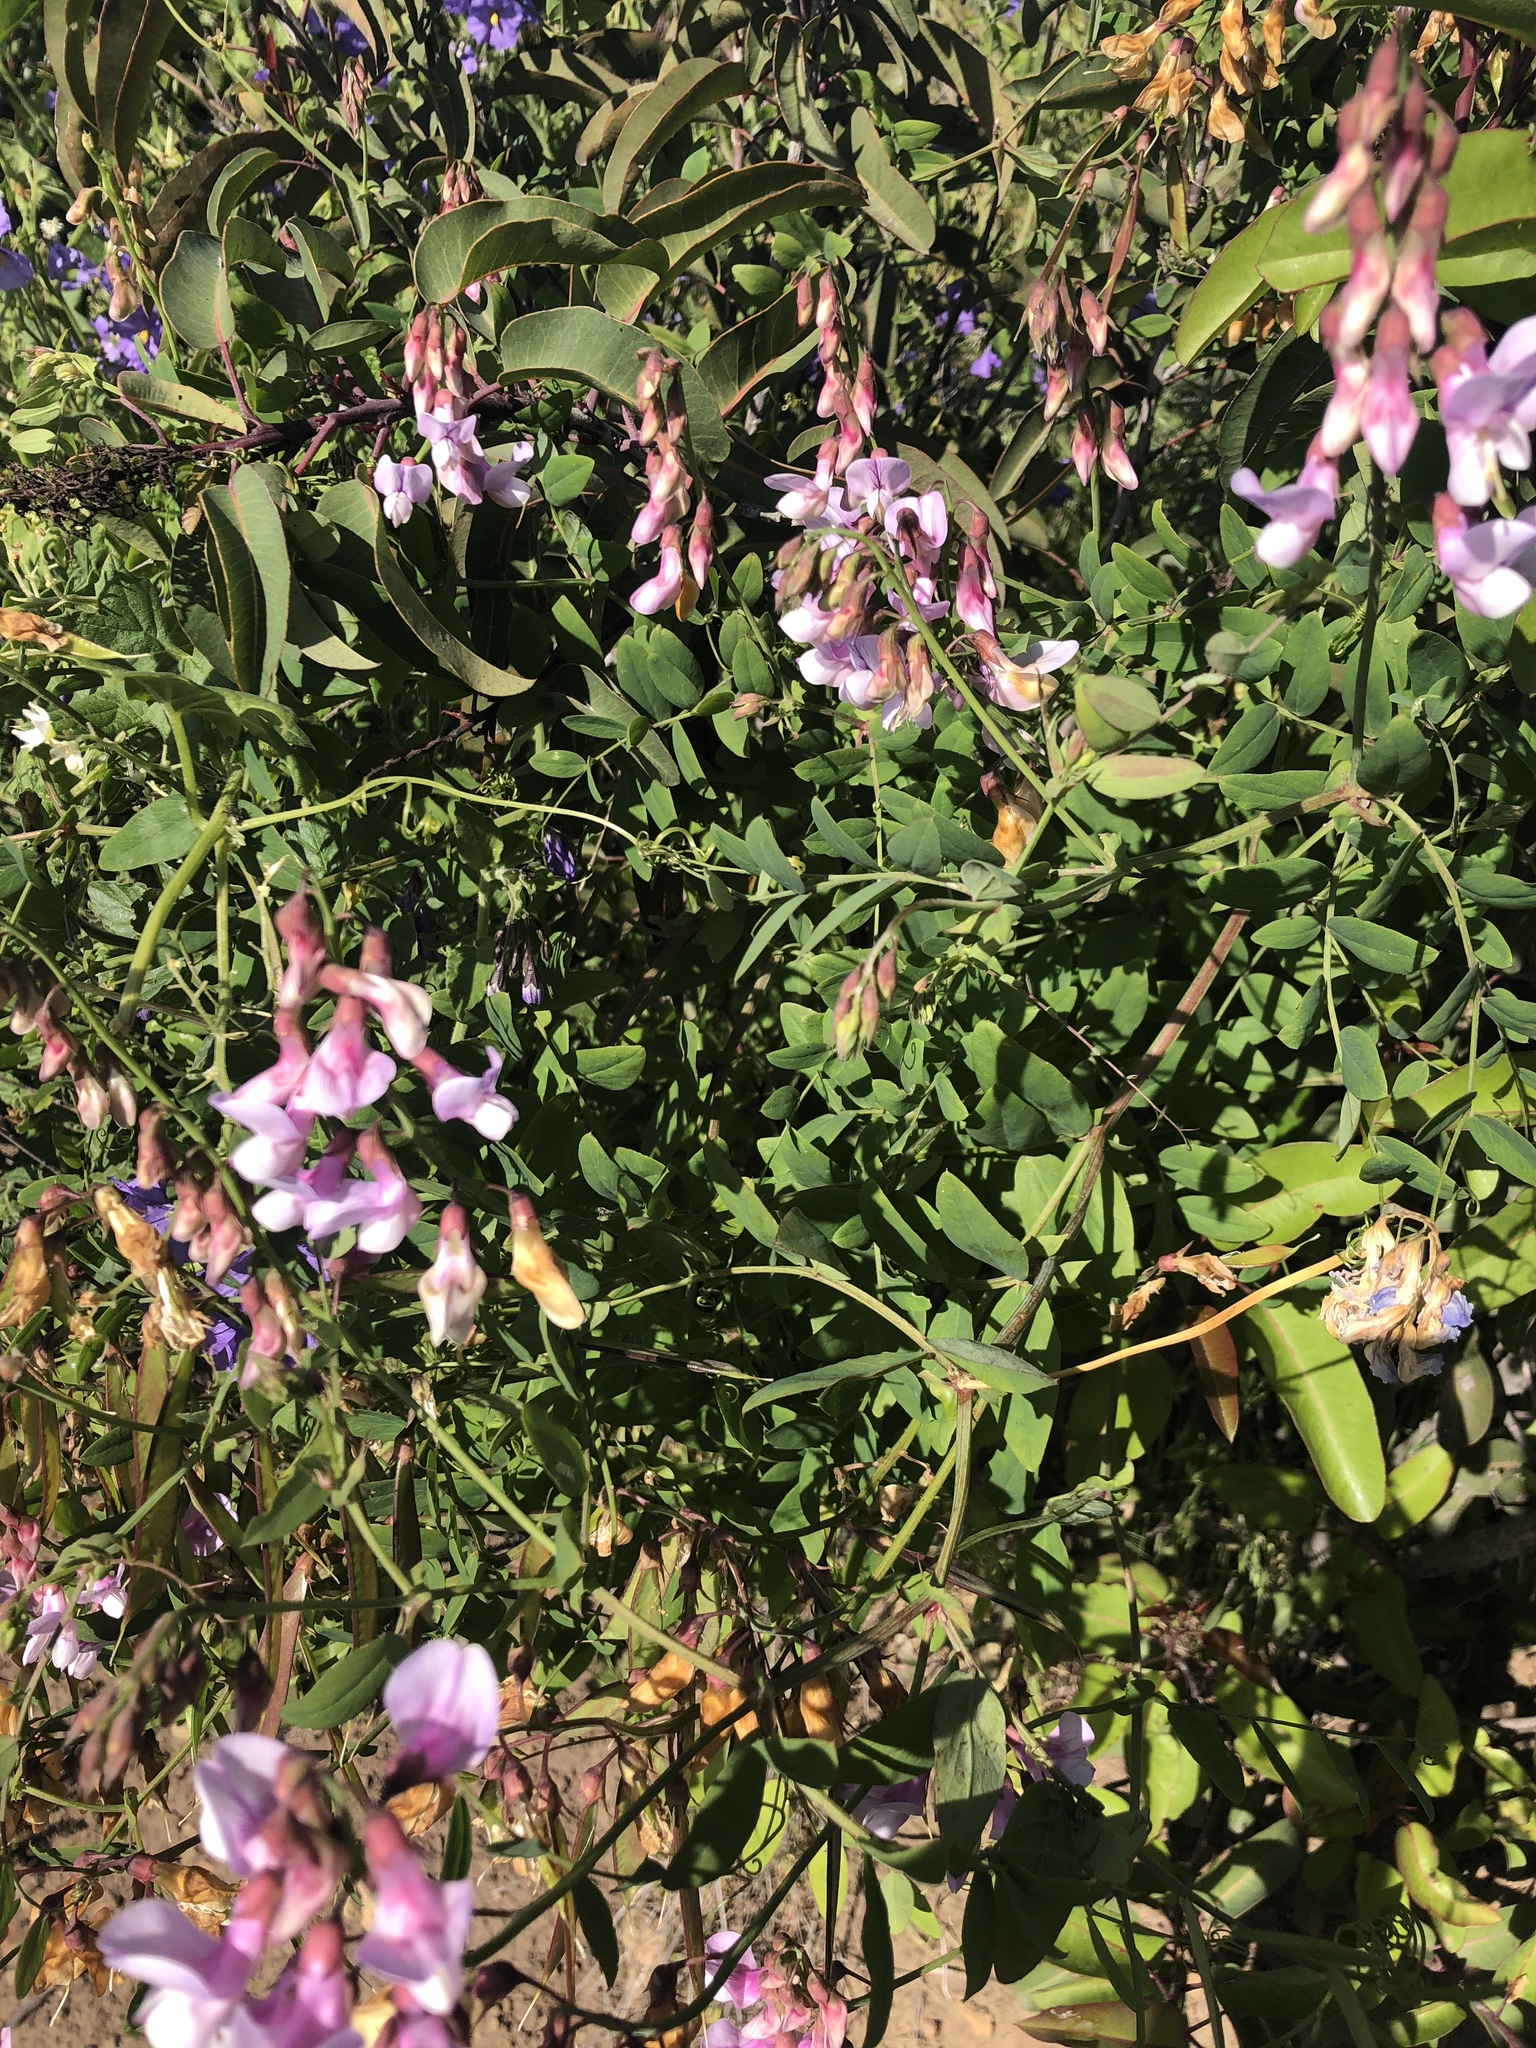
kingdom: Plantae
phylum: Tracheophyta
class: Magnoliopsida
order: Fabales
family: Fabaceae
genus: Lathyrus
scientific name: Lathyrus vestitus
